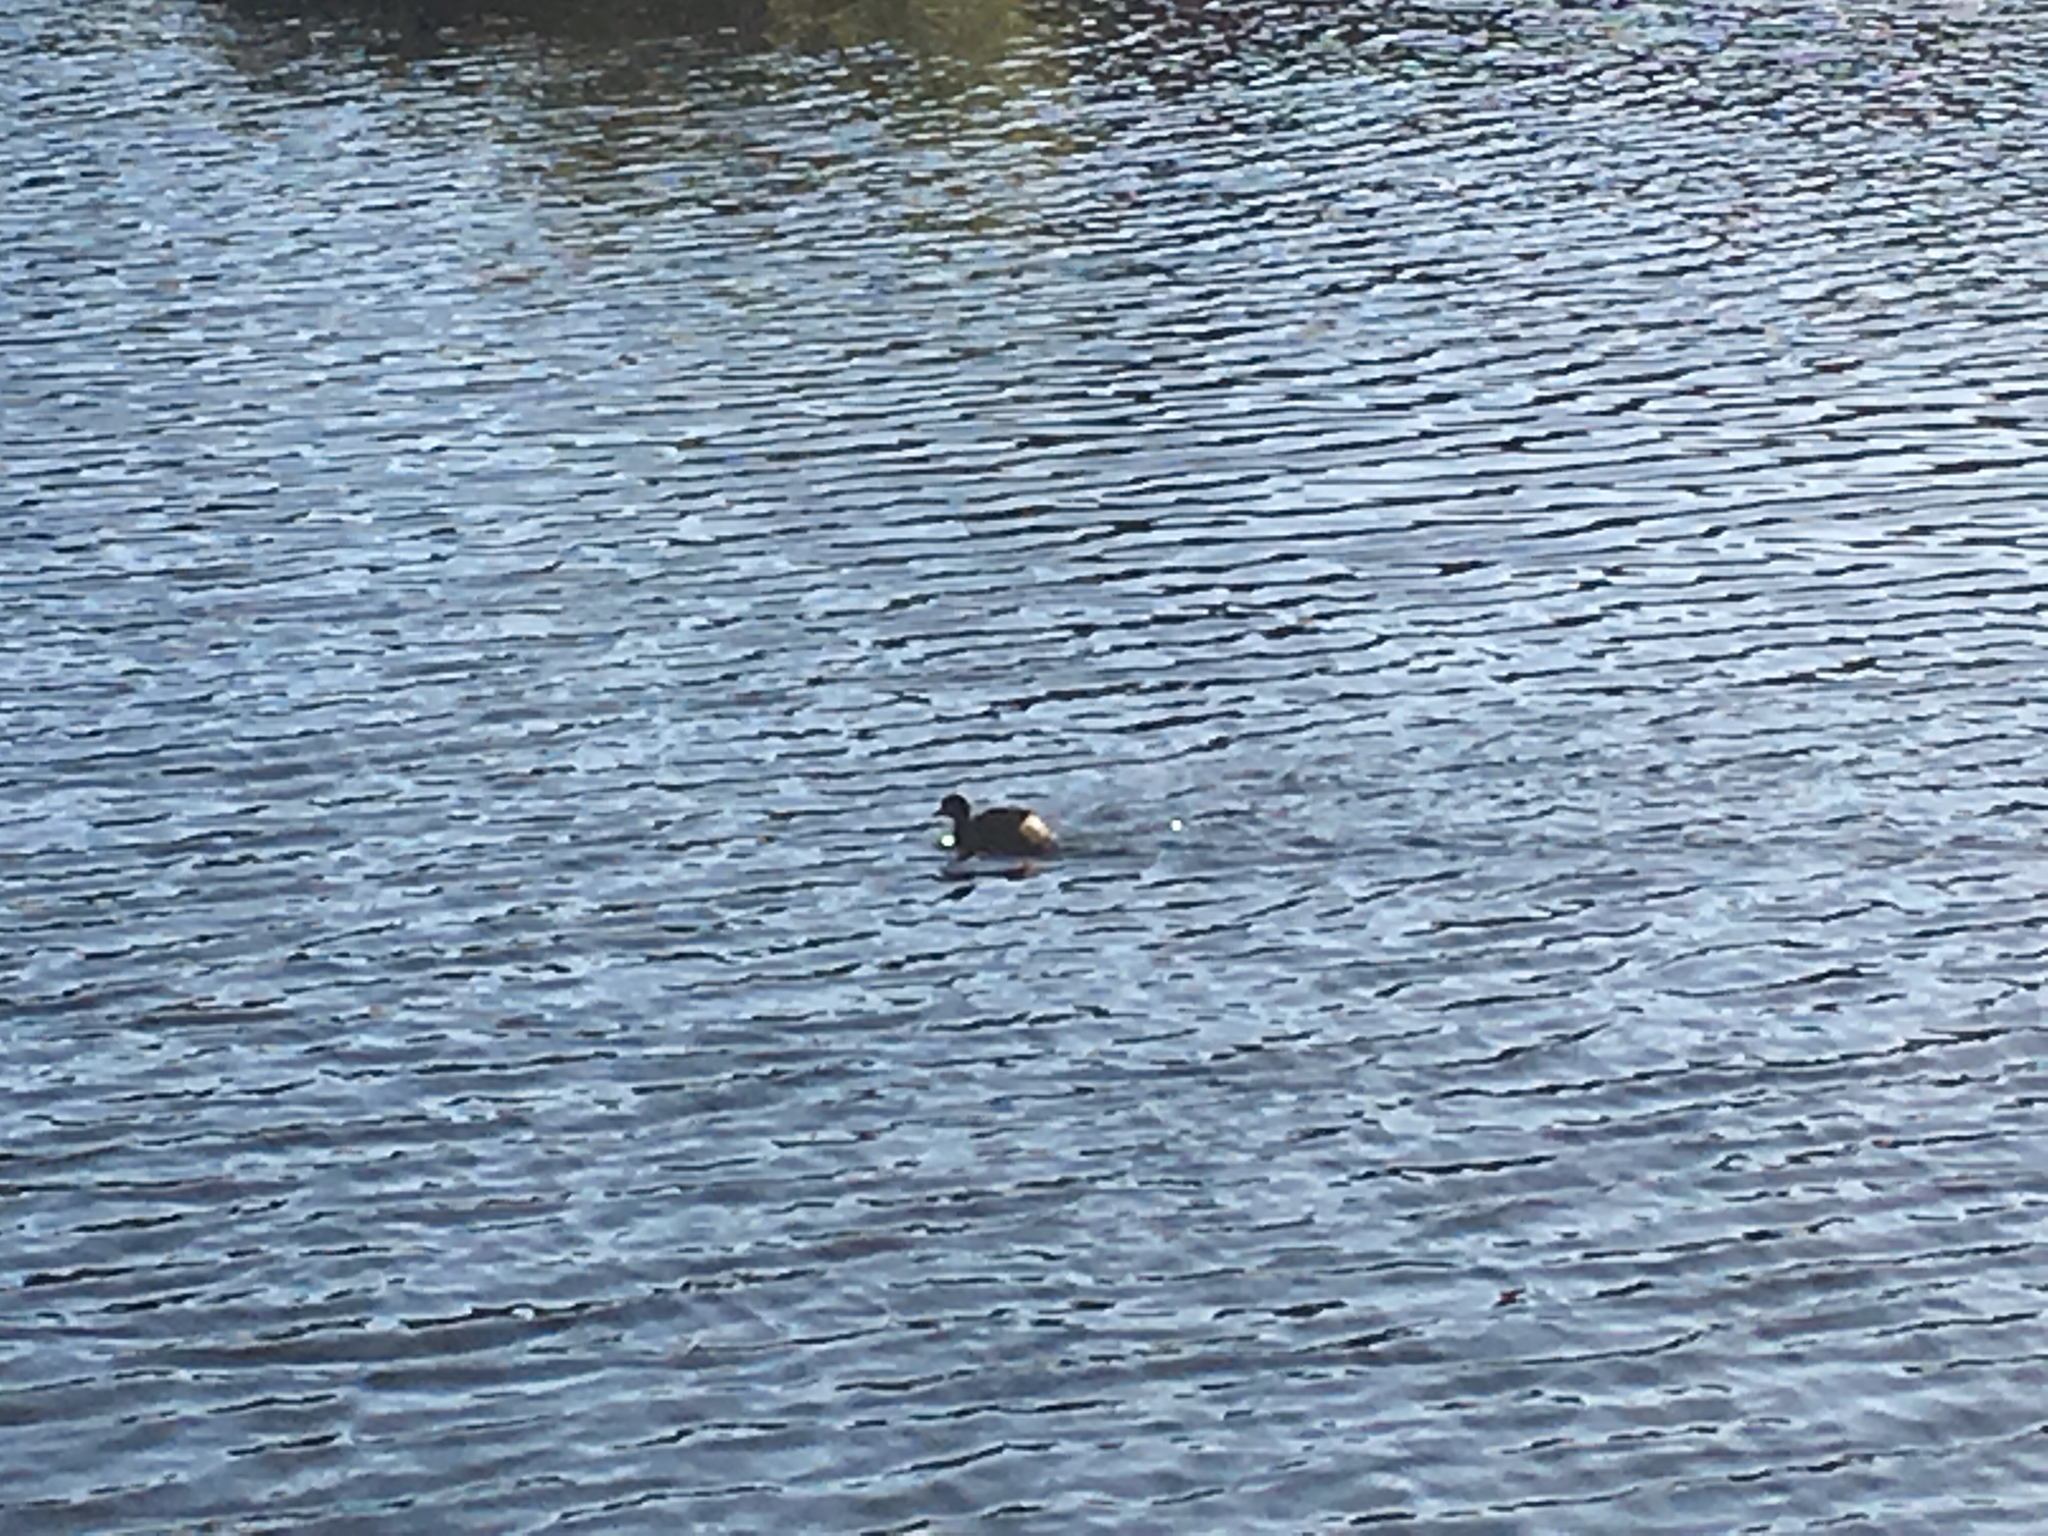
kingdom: Animalia
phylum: Chordata
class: Aves
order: Podicipediformes
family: Podicipedidae
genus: Tachybaptus
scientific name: Tachybaptus novaehollandiae
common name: Australasian grebe
